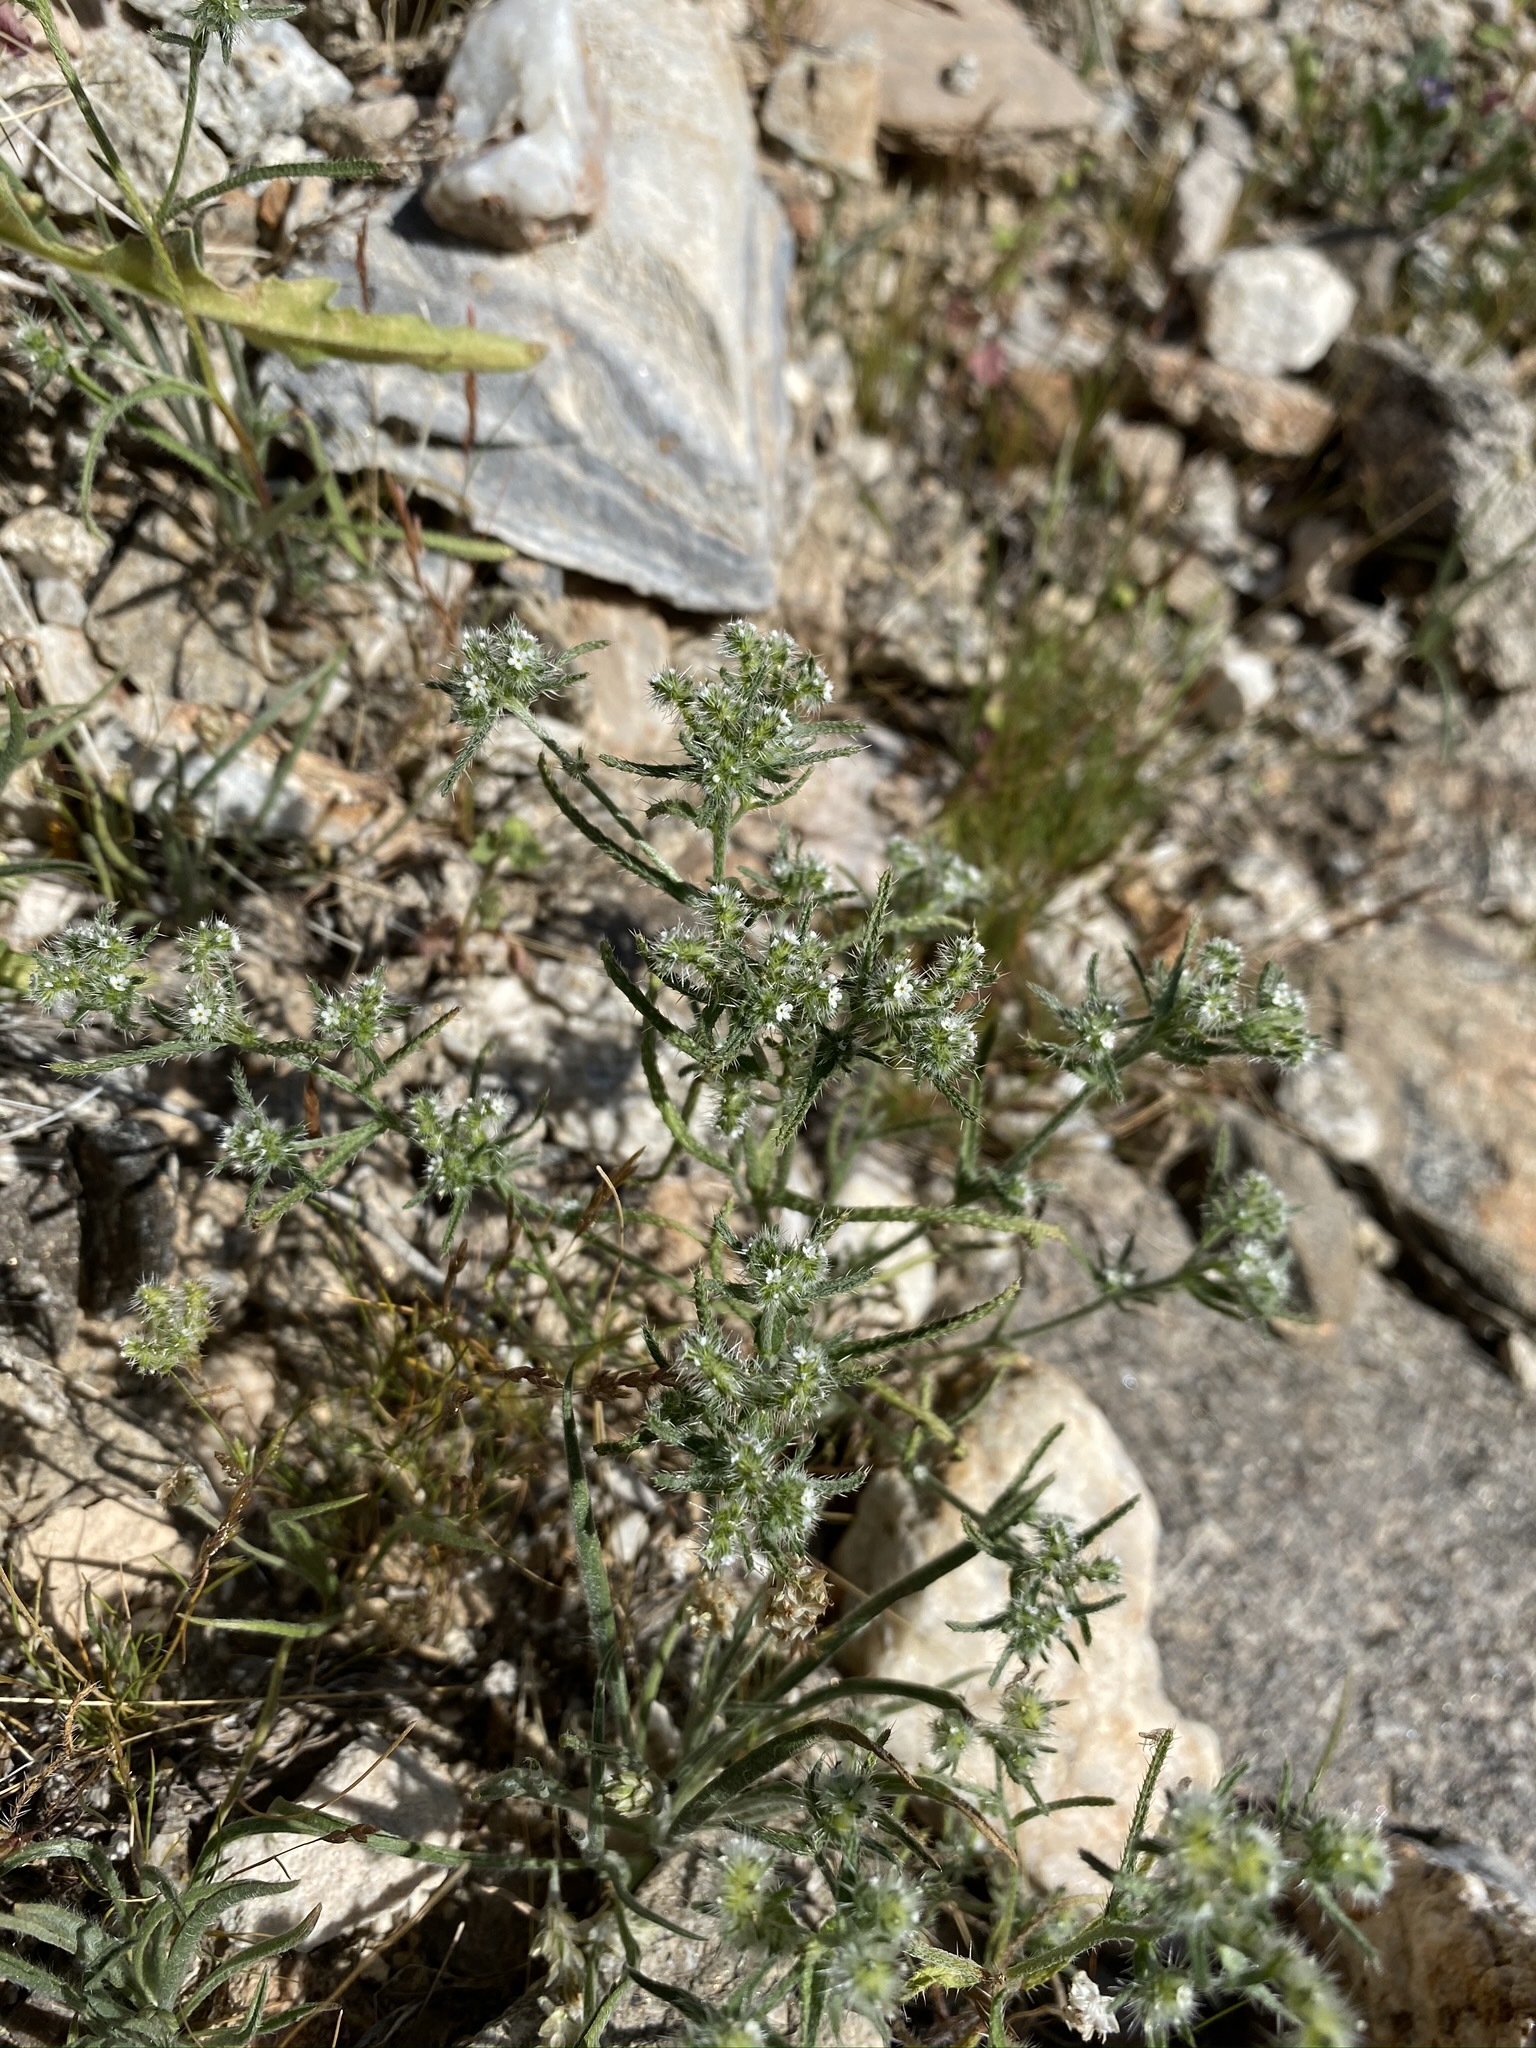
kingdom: Plantae
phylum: Tracheophyta
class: Magnoliopsida
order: Boraginales
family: Boraginaceae
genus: Cryptantha
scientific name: Cryptantha maritima
